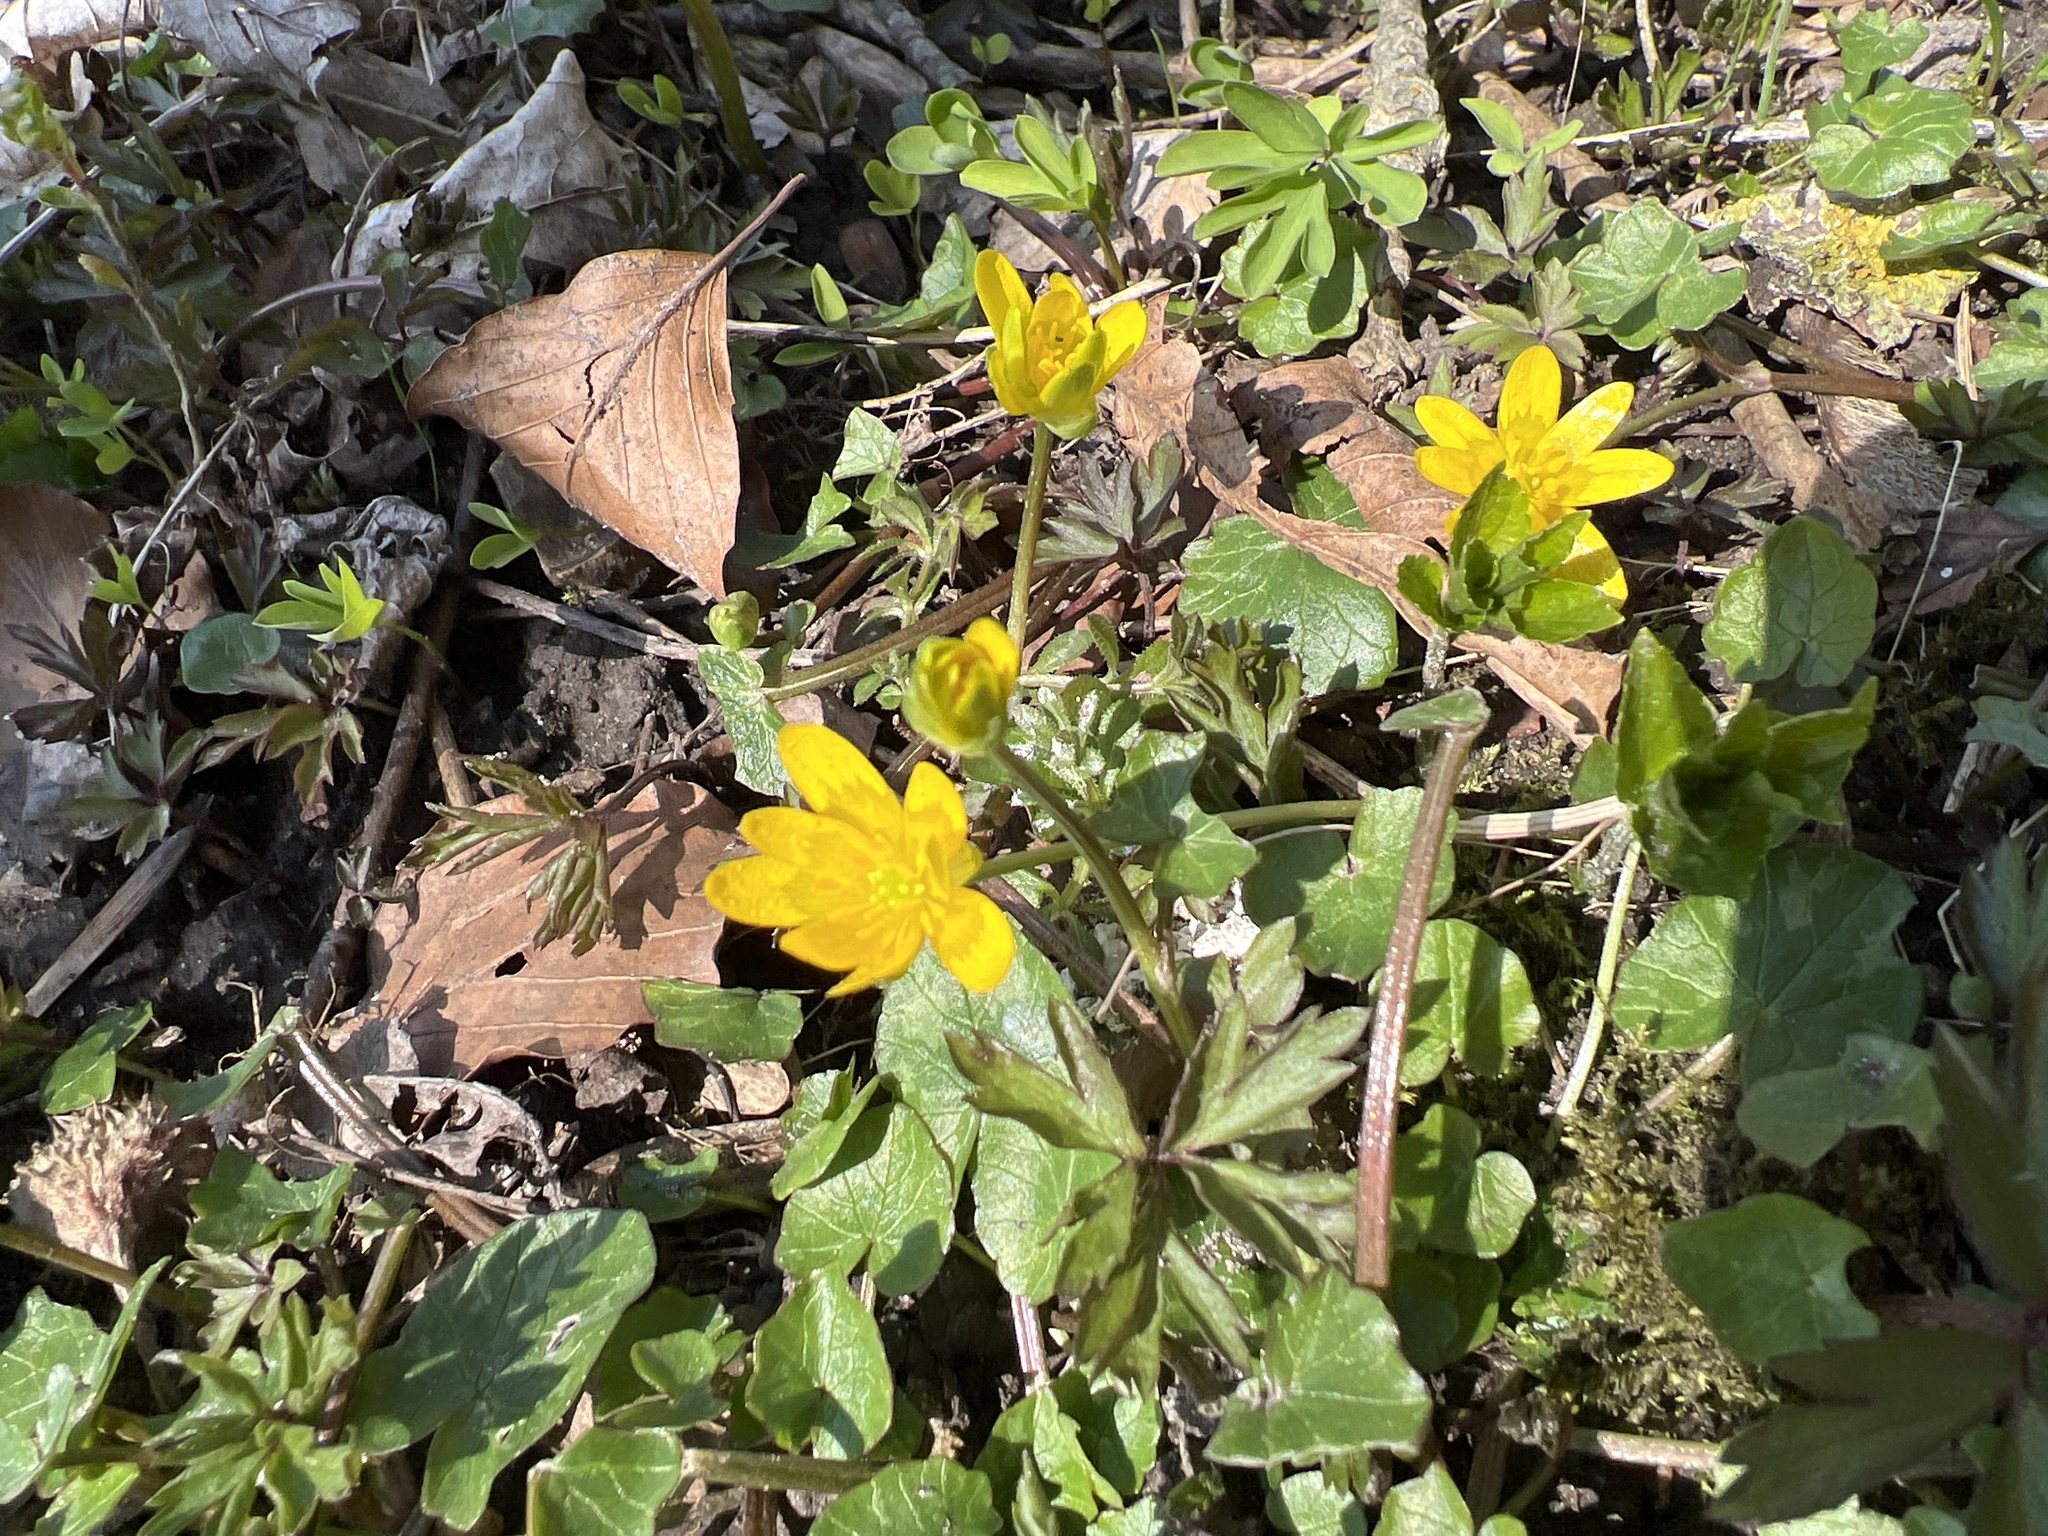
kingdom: Plantae
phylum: Tracheophyta
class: Magnoliopsida
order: Ranunculales
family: Ranunculaceae
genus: Ficaria
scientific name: Ficaria verna
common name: Lesser celandine
